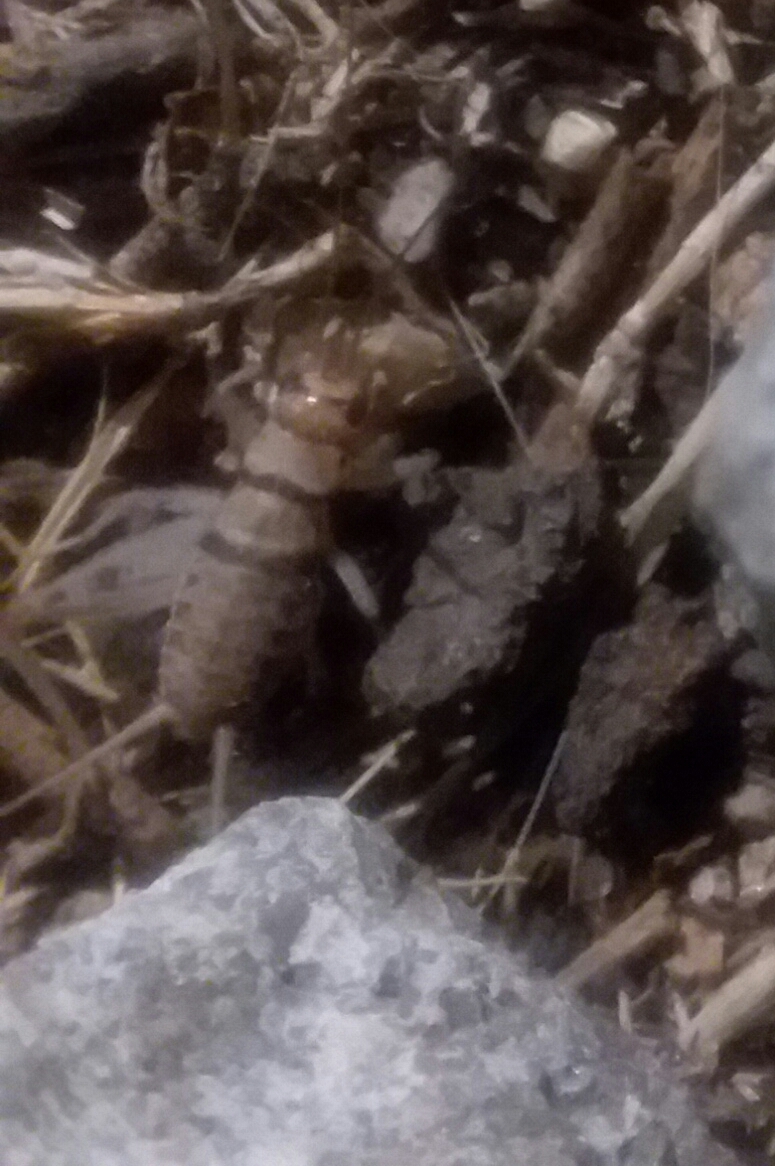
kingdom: Animalia
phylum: Arthropoda
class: Insecta
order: Orthoptera
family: Gryllidae
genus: Gryllodes
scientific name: Gryllodes sigillatus
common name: Tropical house cricket
